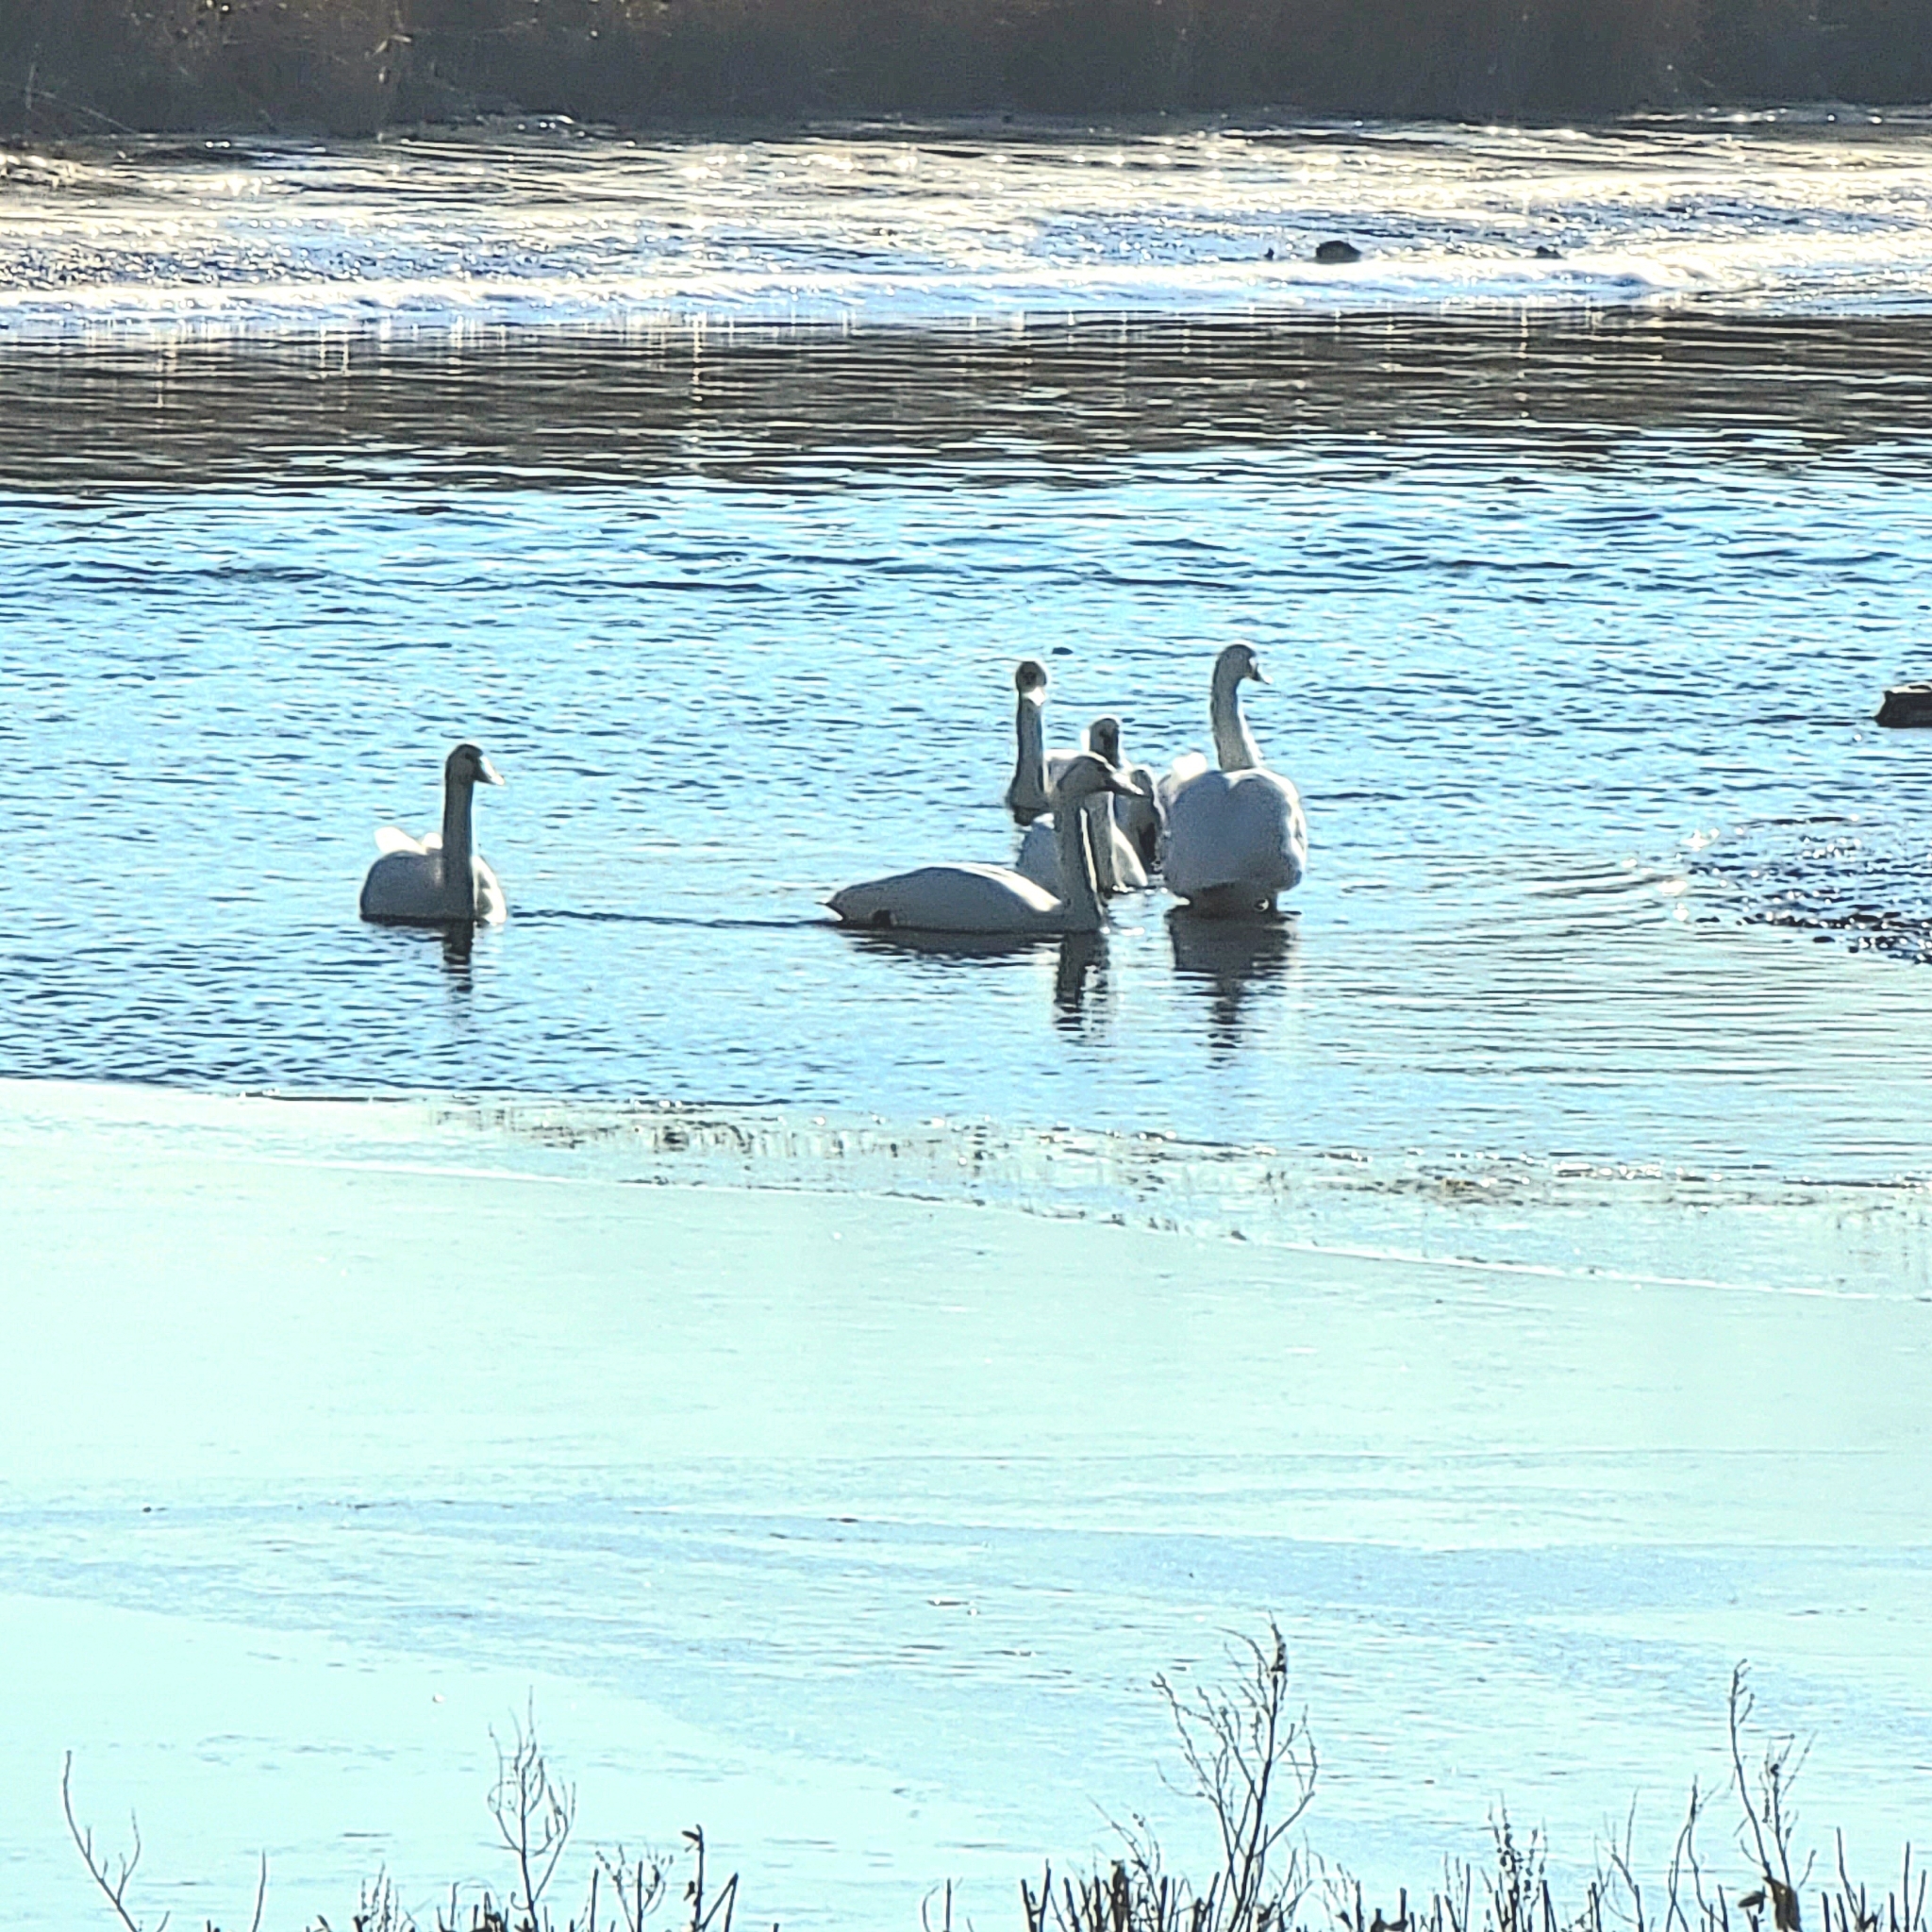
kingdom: Animalia
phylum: Chordata
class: Aves
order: Anseriformes
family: Anatidae
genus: Cygnus
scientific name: Cygnus columbianus
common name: Tundra swan
